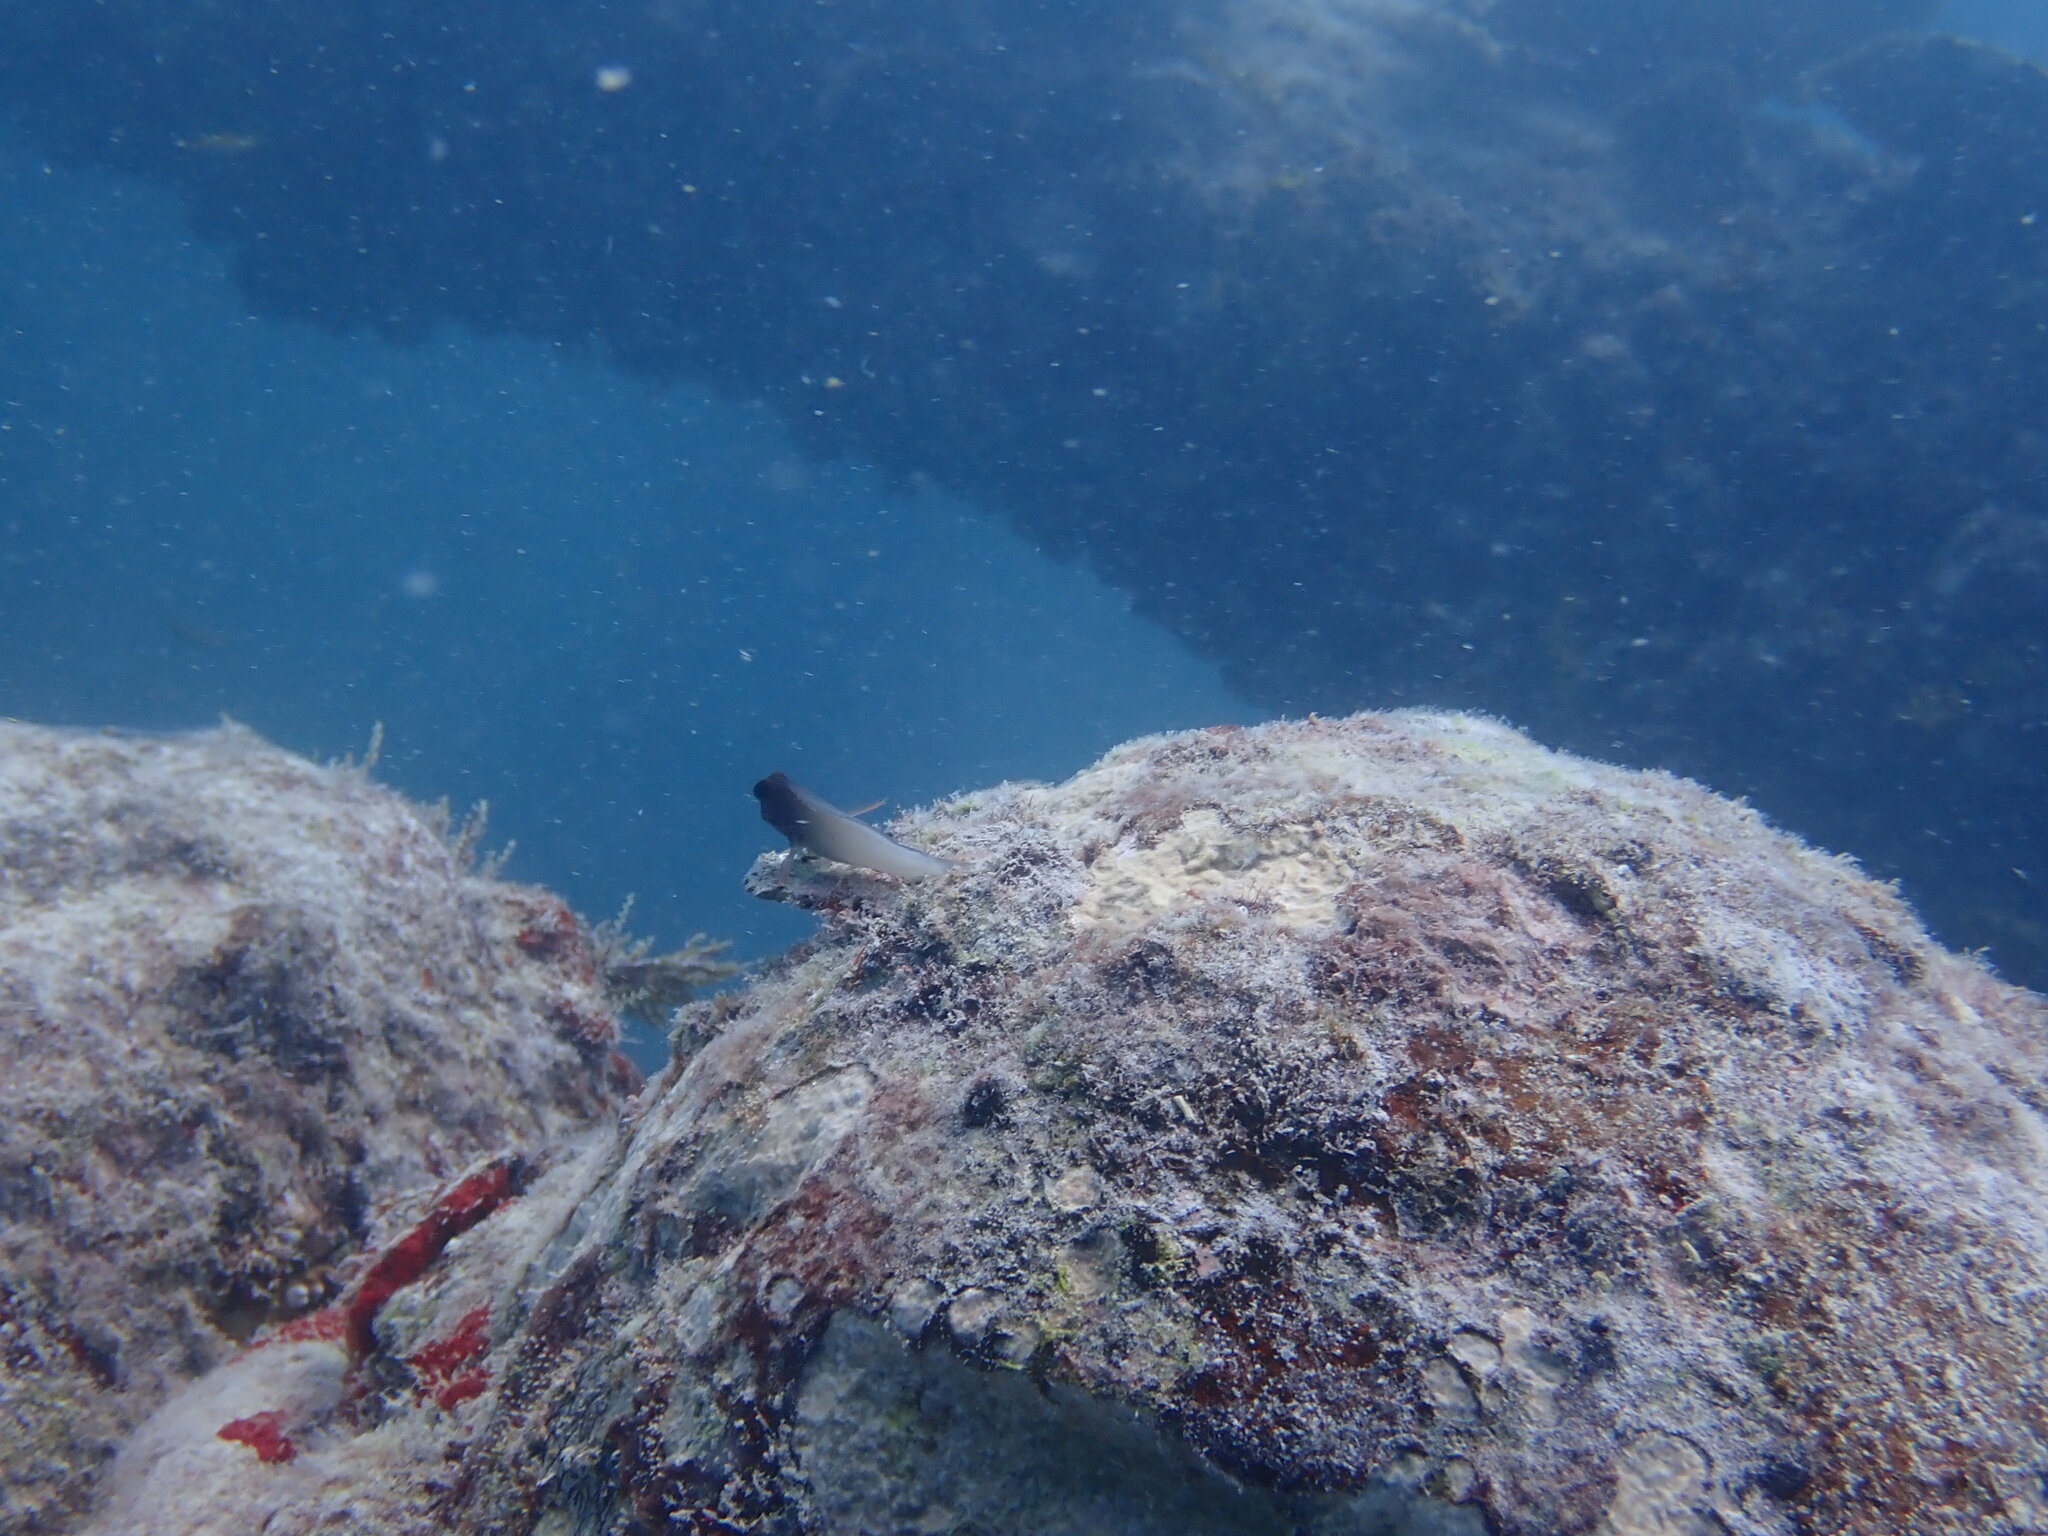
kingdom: Animalia
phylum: Chordata
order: Perciformes
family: Blenniidae
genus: Ophioblennius
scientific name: Ophioblennius macclurei
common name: Redlip blenny
